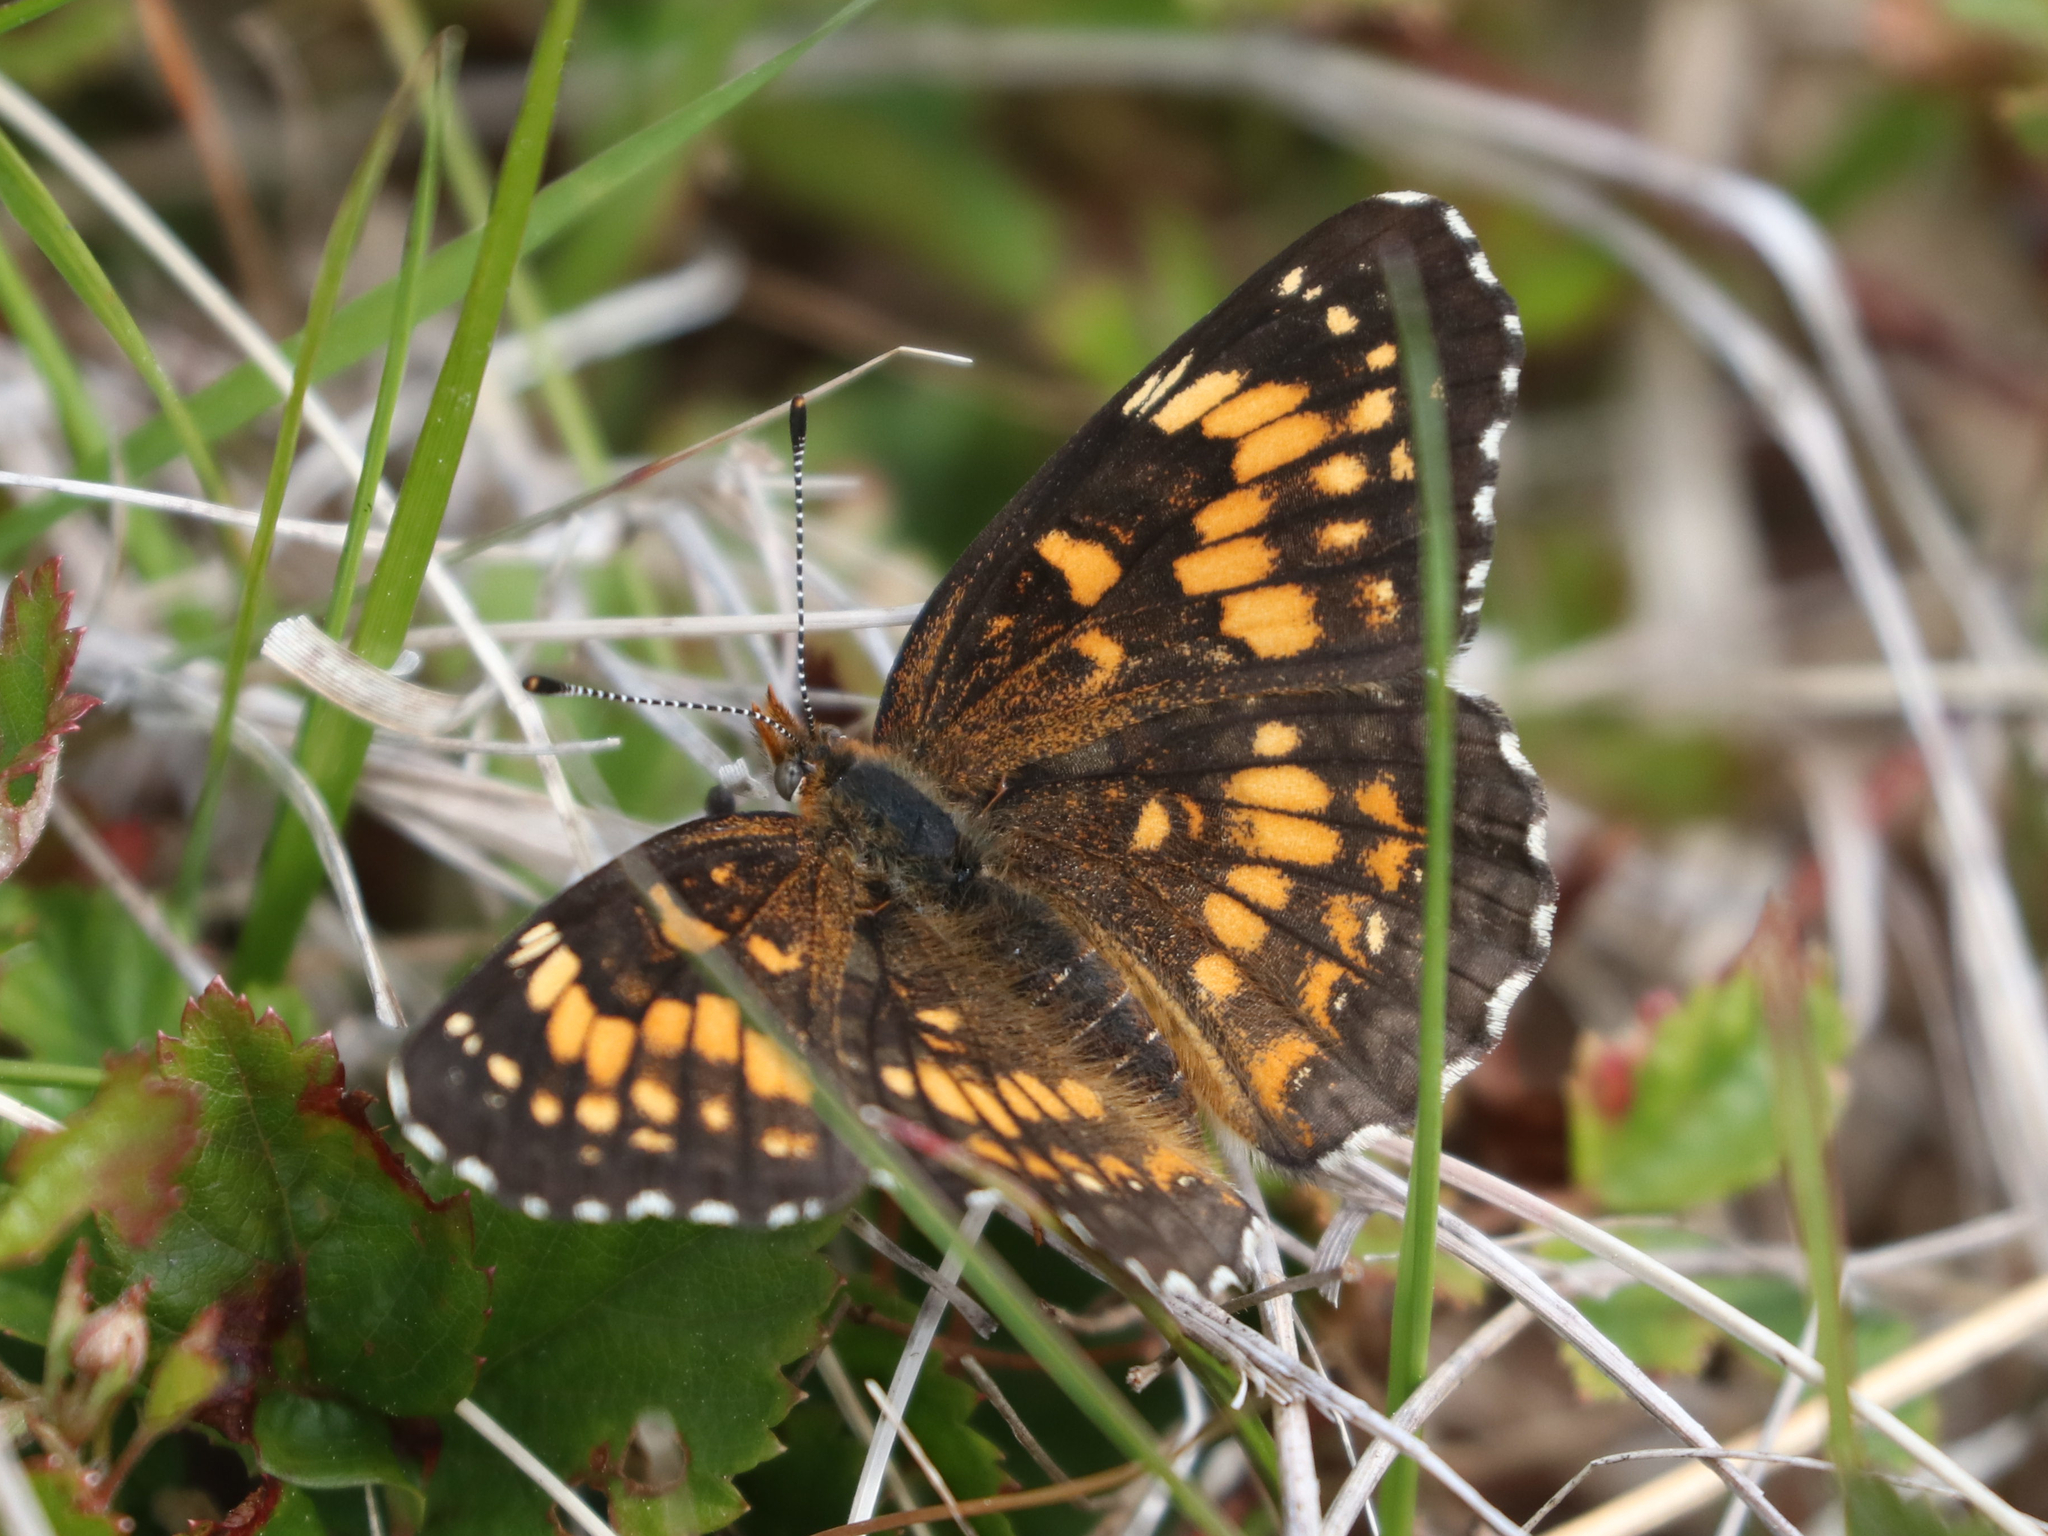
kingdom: Animalia
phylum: Arthropoda
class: Insecta
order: Lepidoptera
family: Nymphalidae
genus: Chlosyne
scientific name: Chlosyne harrisii
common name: Harris's checkerspot
